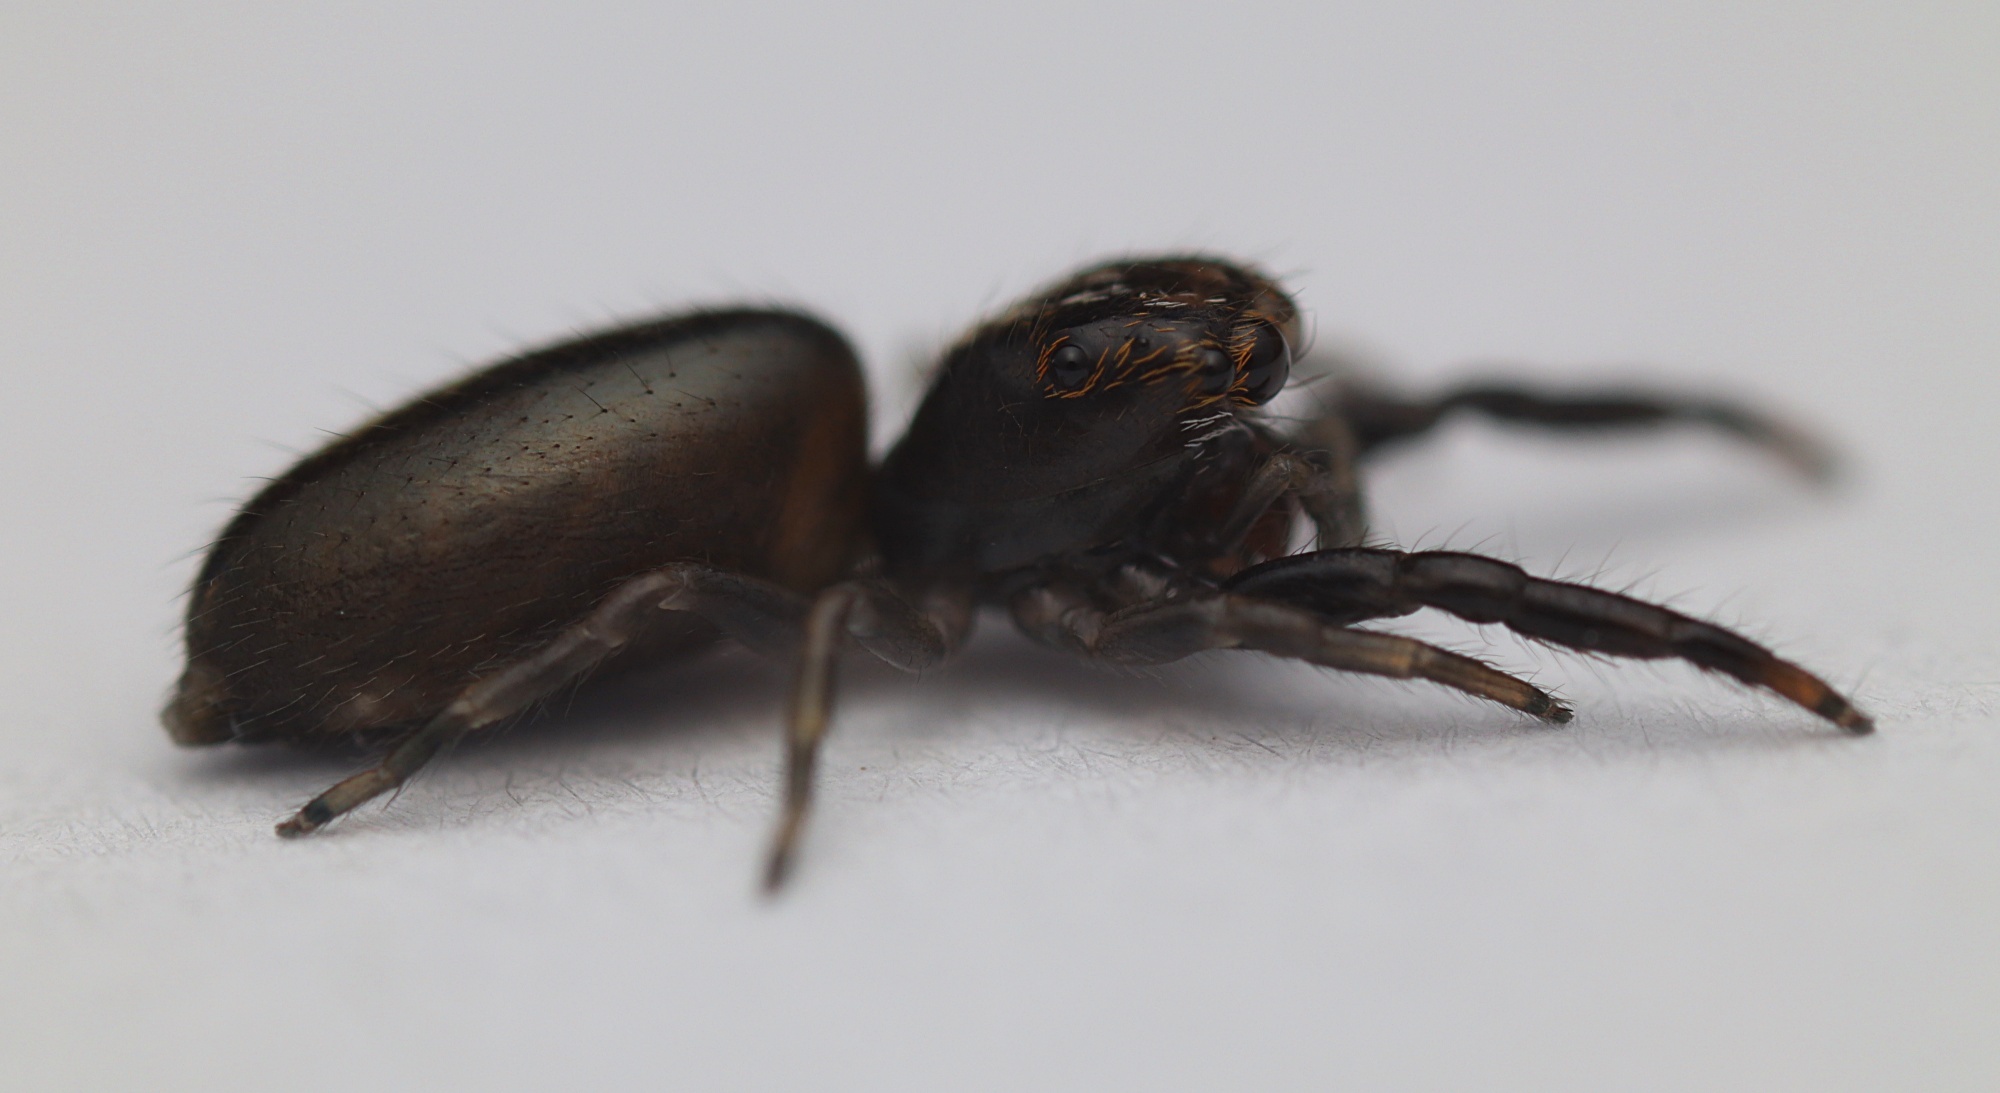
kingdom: Animalia
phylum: Arthropoda
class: Arachnida
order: Araneae
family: Salticidae
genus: Trite
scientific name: Trite planiceps
